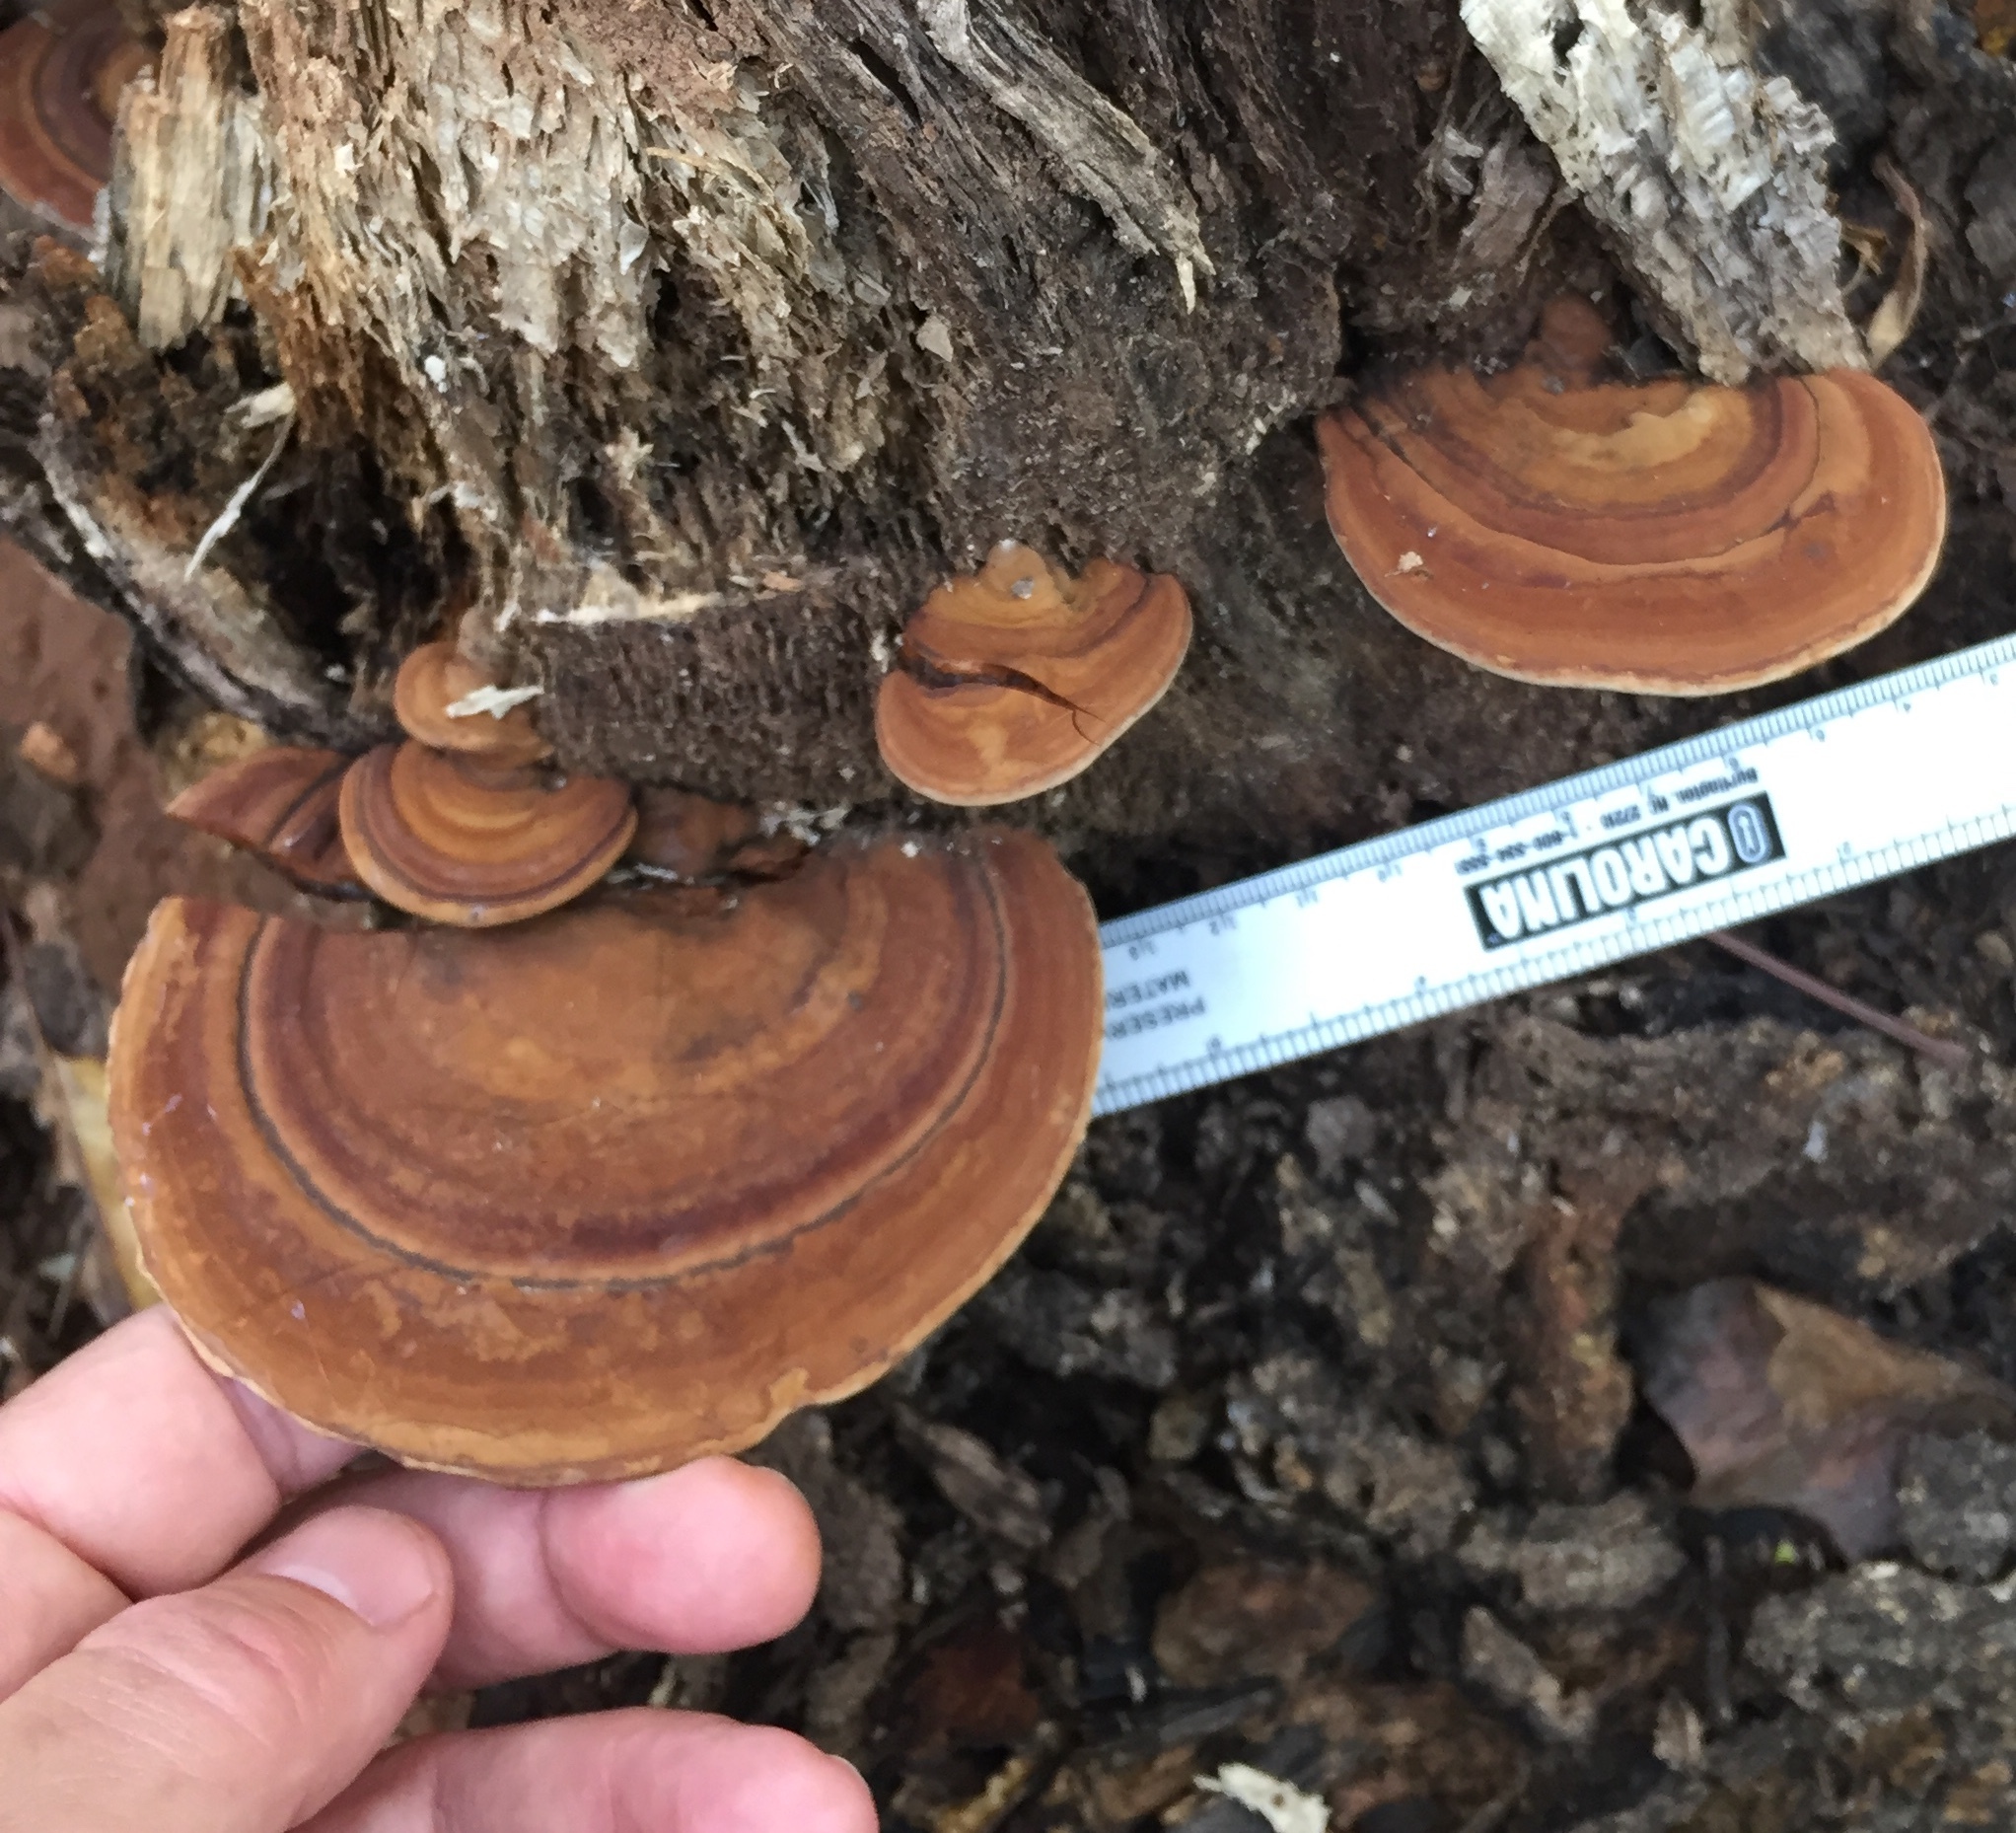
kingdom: Fungi
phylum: Basidiomycota
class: Agaricomycetes
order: Polyporales
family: Polyporaceae
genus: Ganoderma
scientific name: Ganoderma applanatum
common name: Artist's bracket
